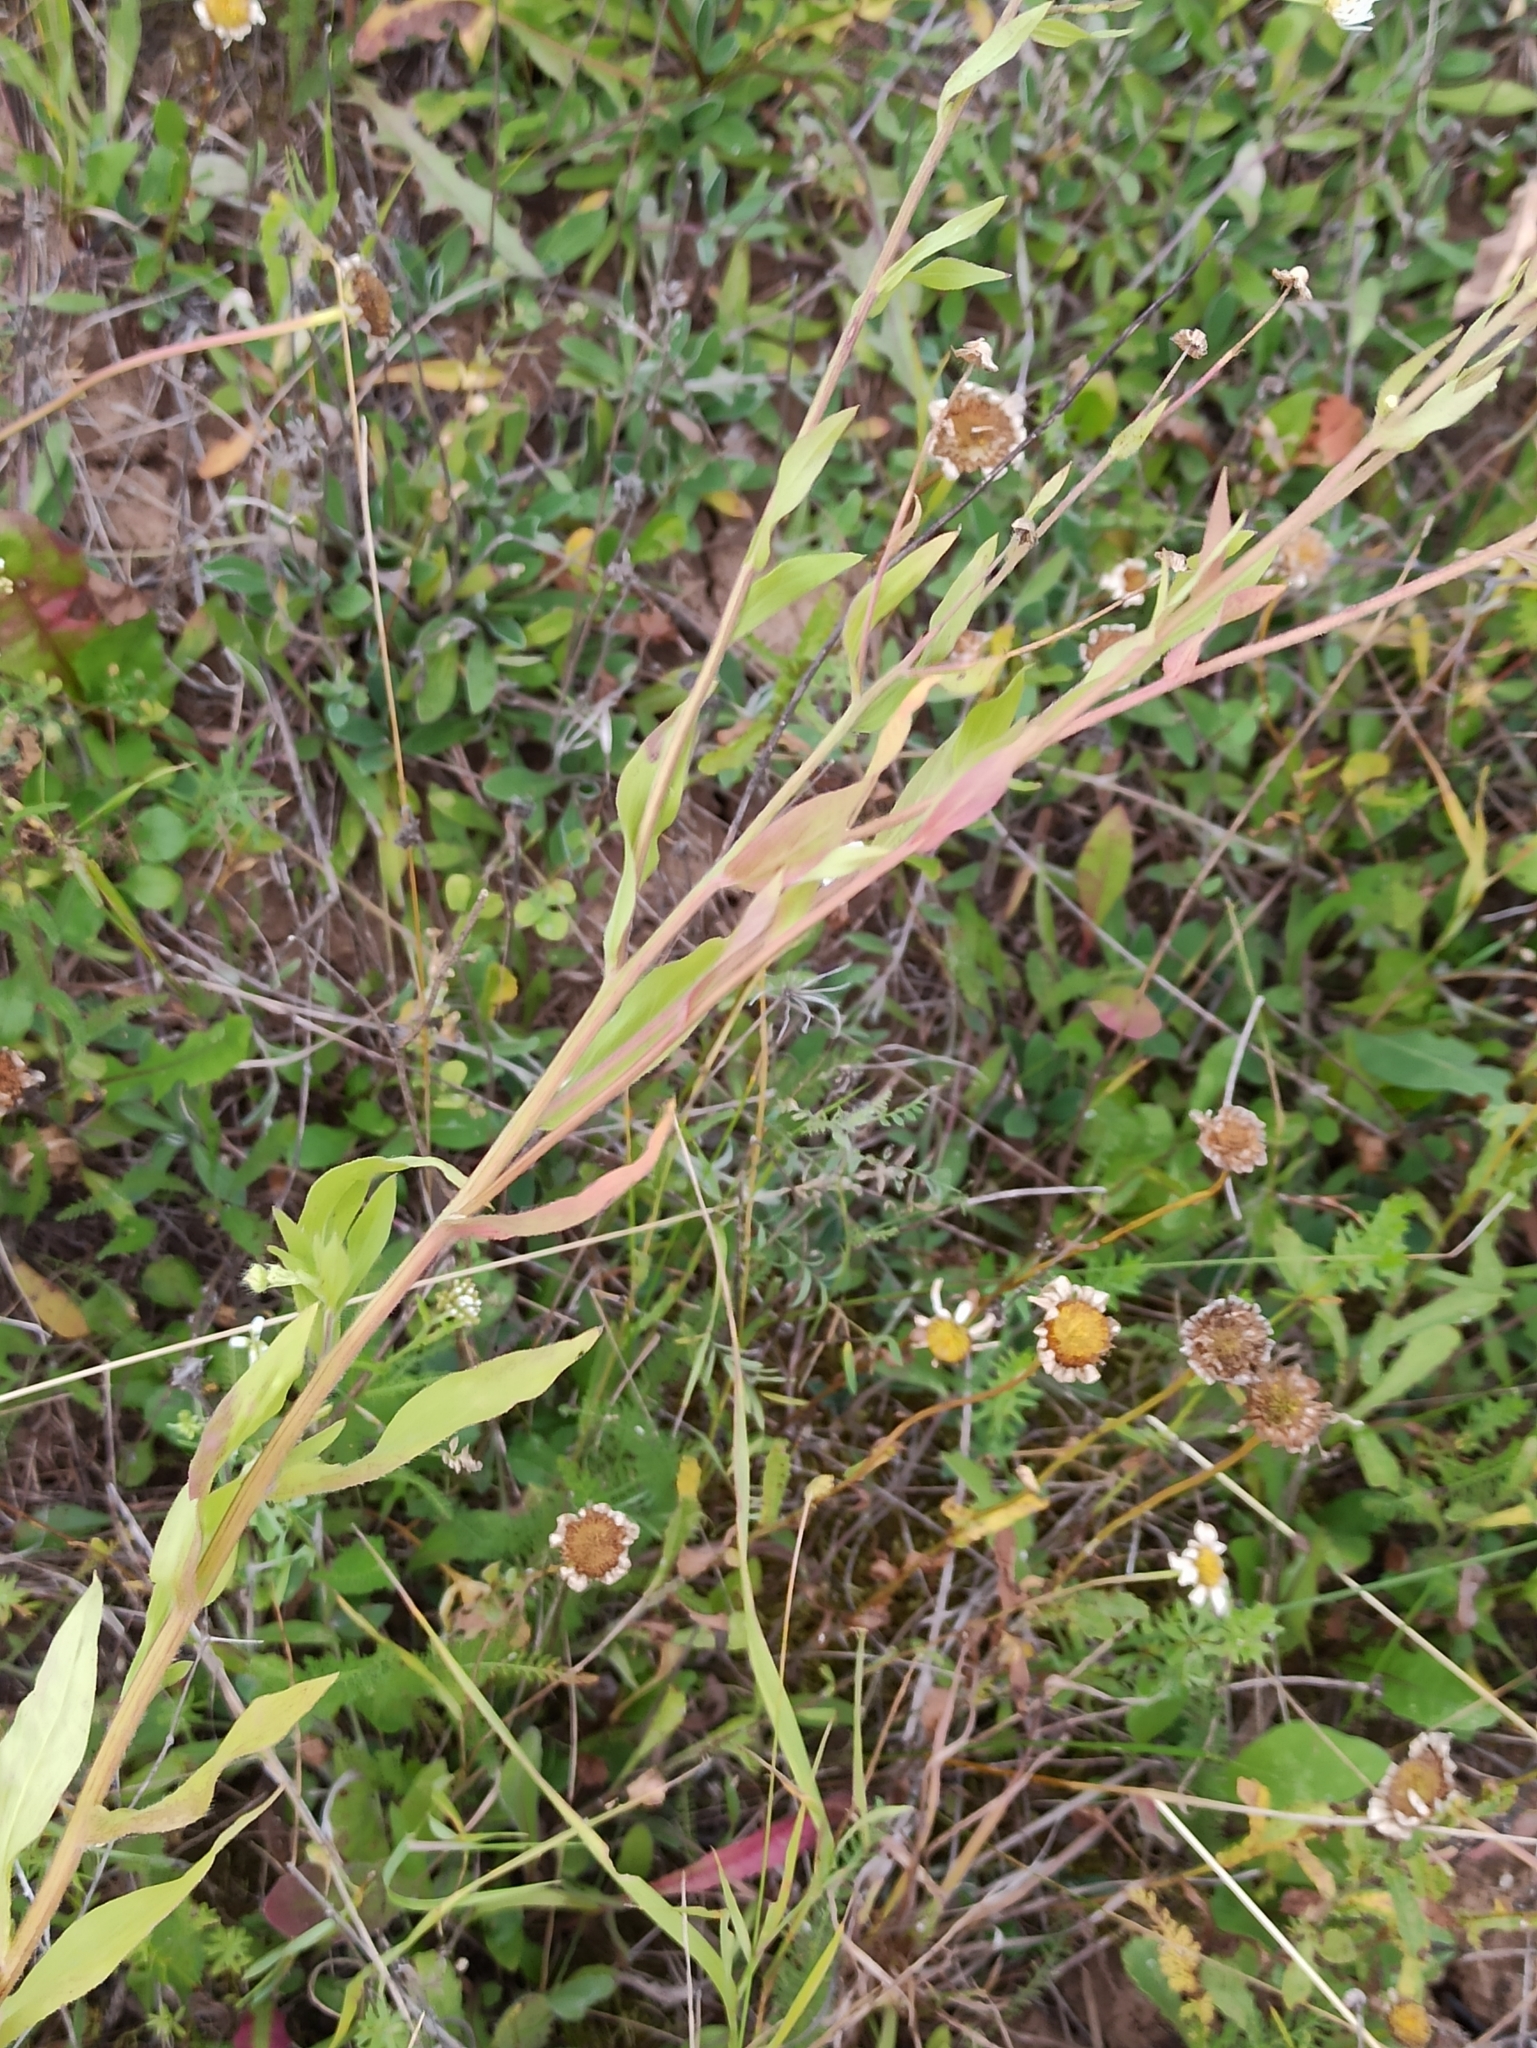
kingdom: Plantae
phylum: Tracheophyta
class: Magnoliopsida
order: Asterales
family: Asteraceae
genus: Erigeron
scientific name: Erigeron annuus
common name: Tall fleabane
